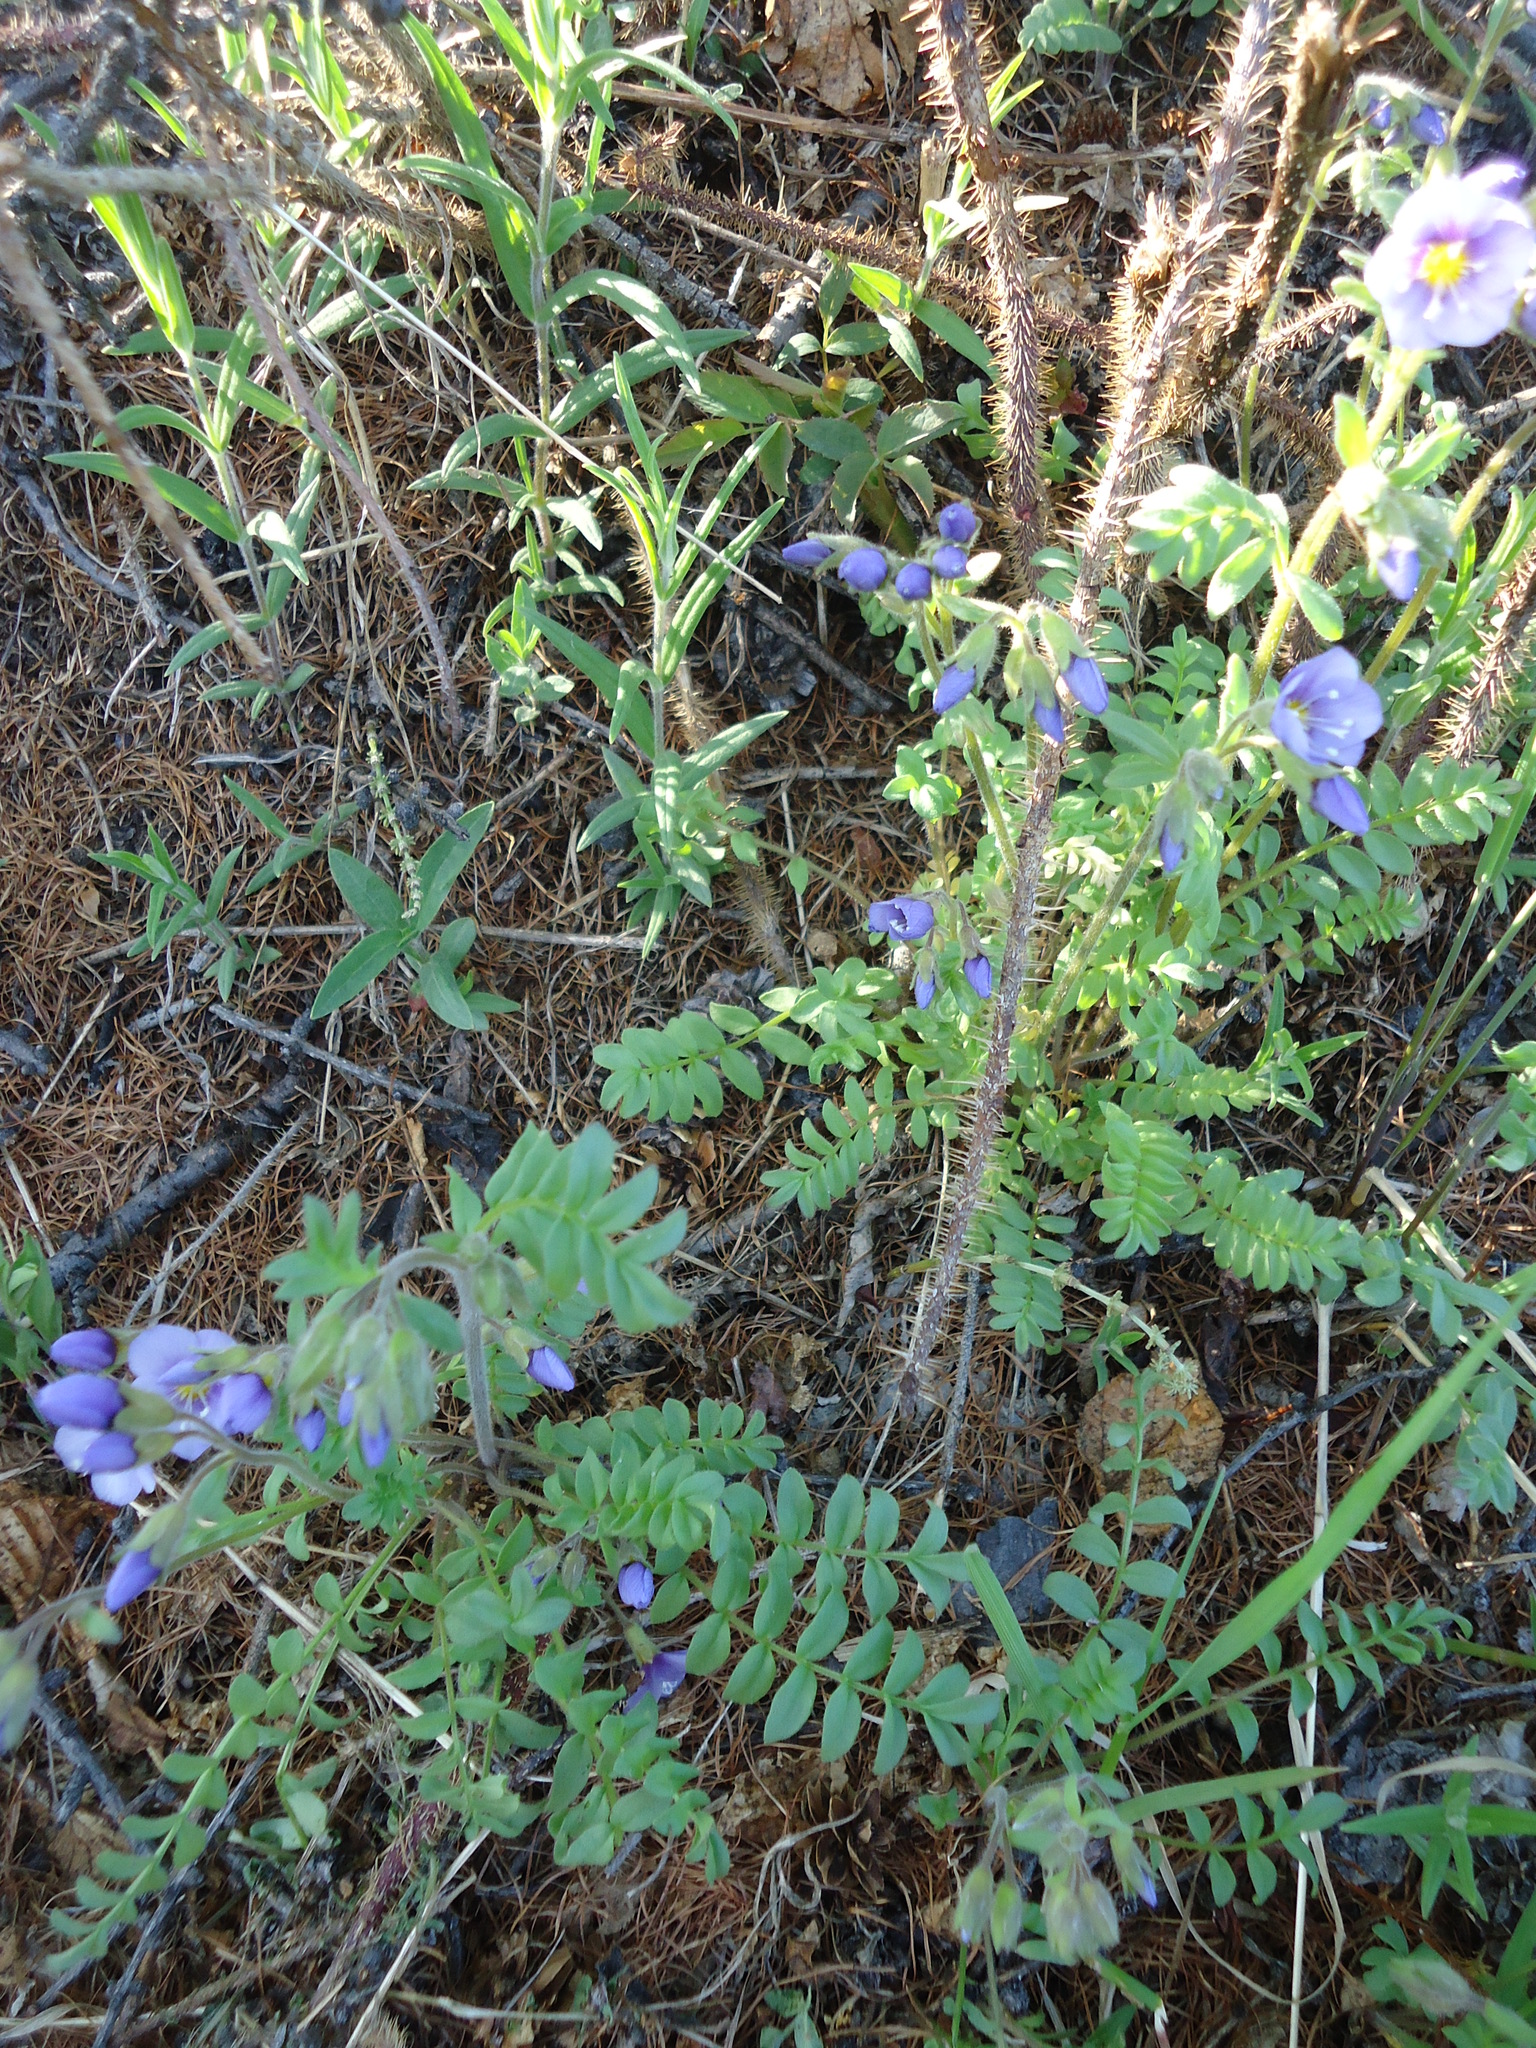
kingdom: Plantae
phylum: Tracheophyta
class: Magnoliopsida
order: Ericales
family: Polemoniaceae
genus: Polemonium
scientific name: Polemonium boreale
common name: Boreal jacob's-ladder
